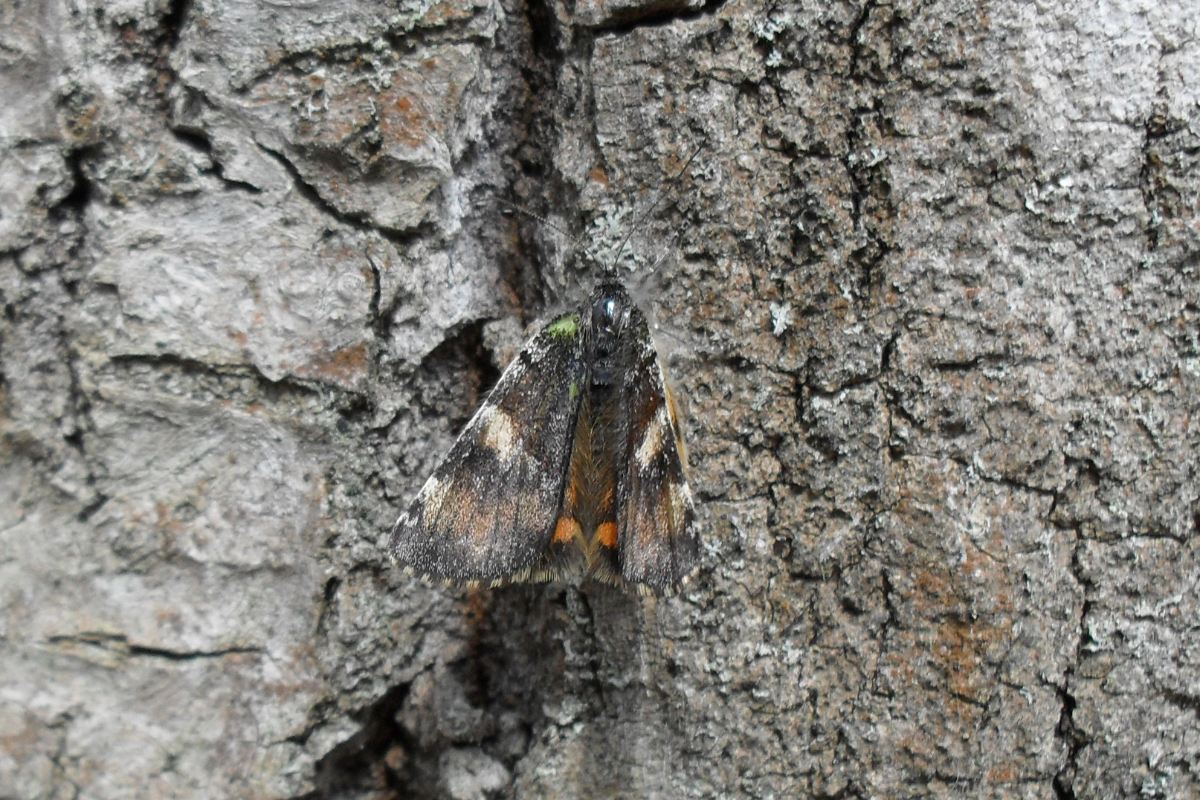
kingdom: Animalia
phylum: Arthropoda
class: Insecta
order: Lepidoptera
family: Geometridae
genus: Archiearis
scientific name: Archiearis parthenias
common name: Orange underwing
